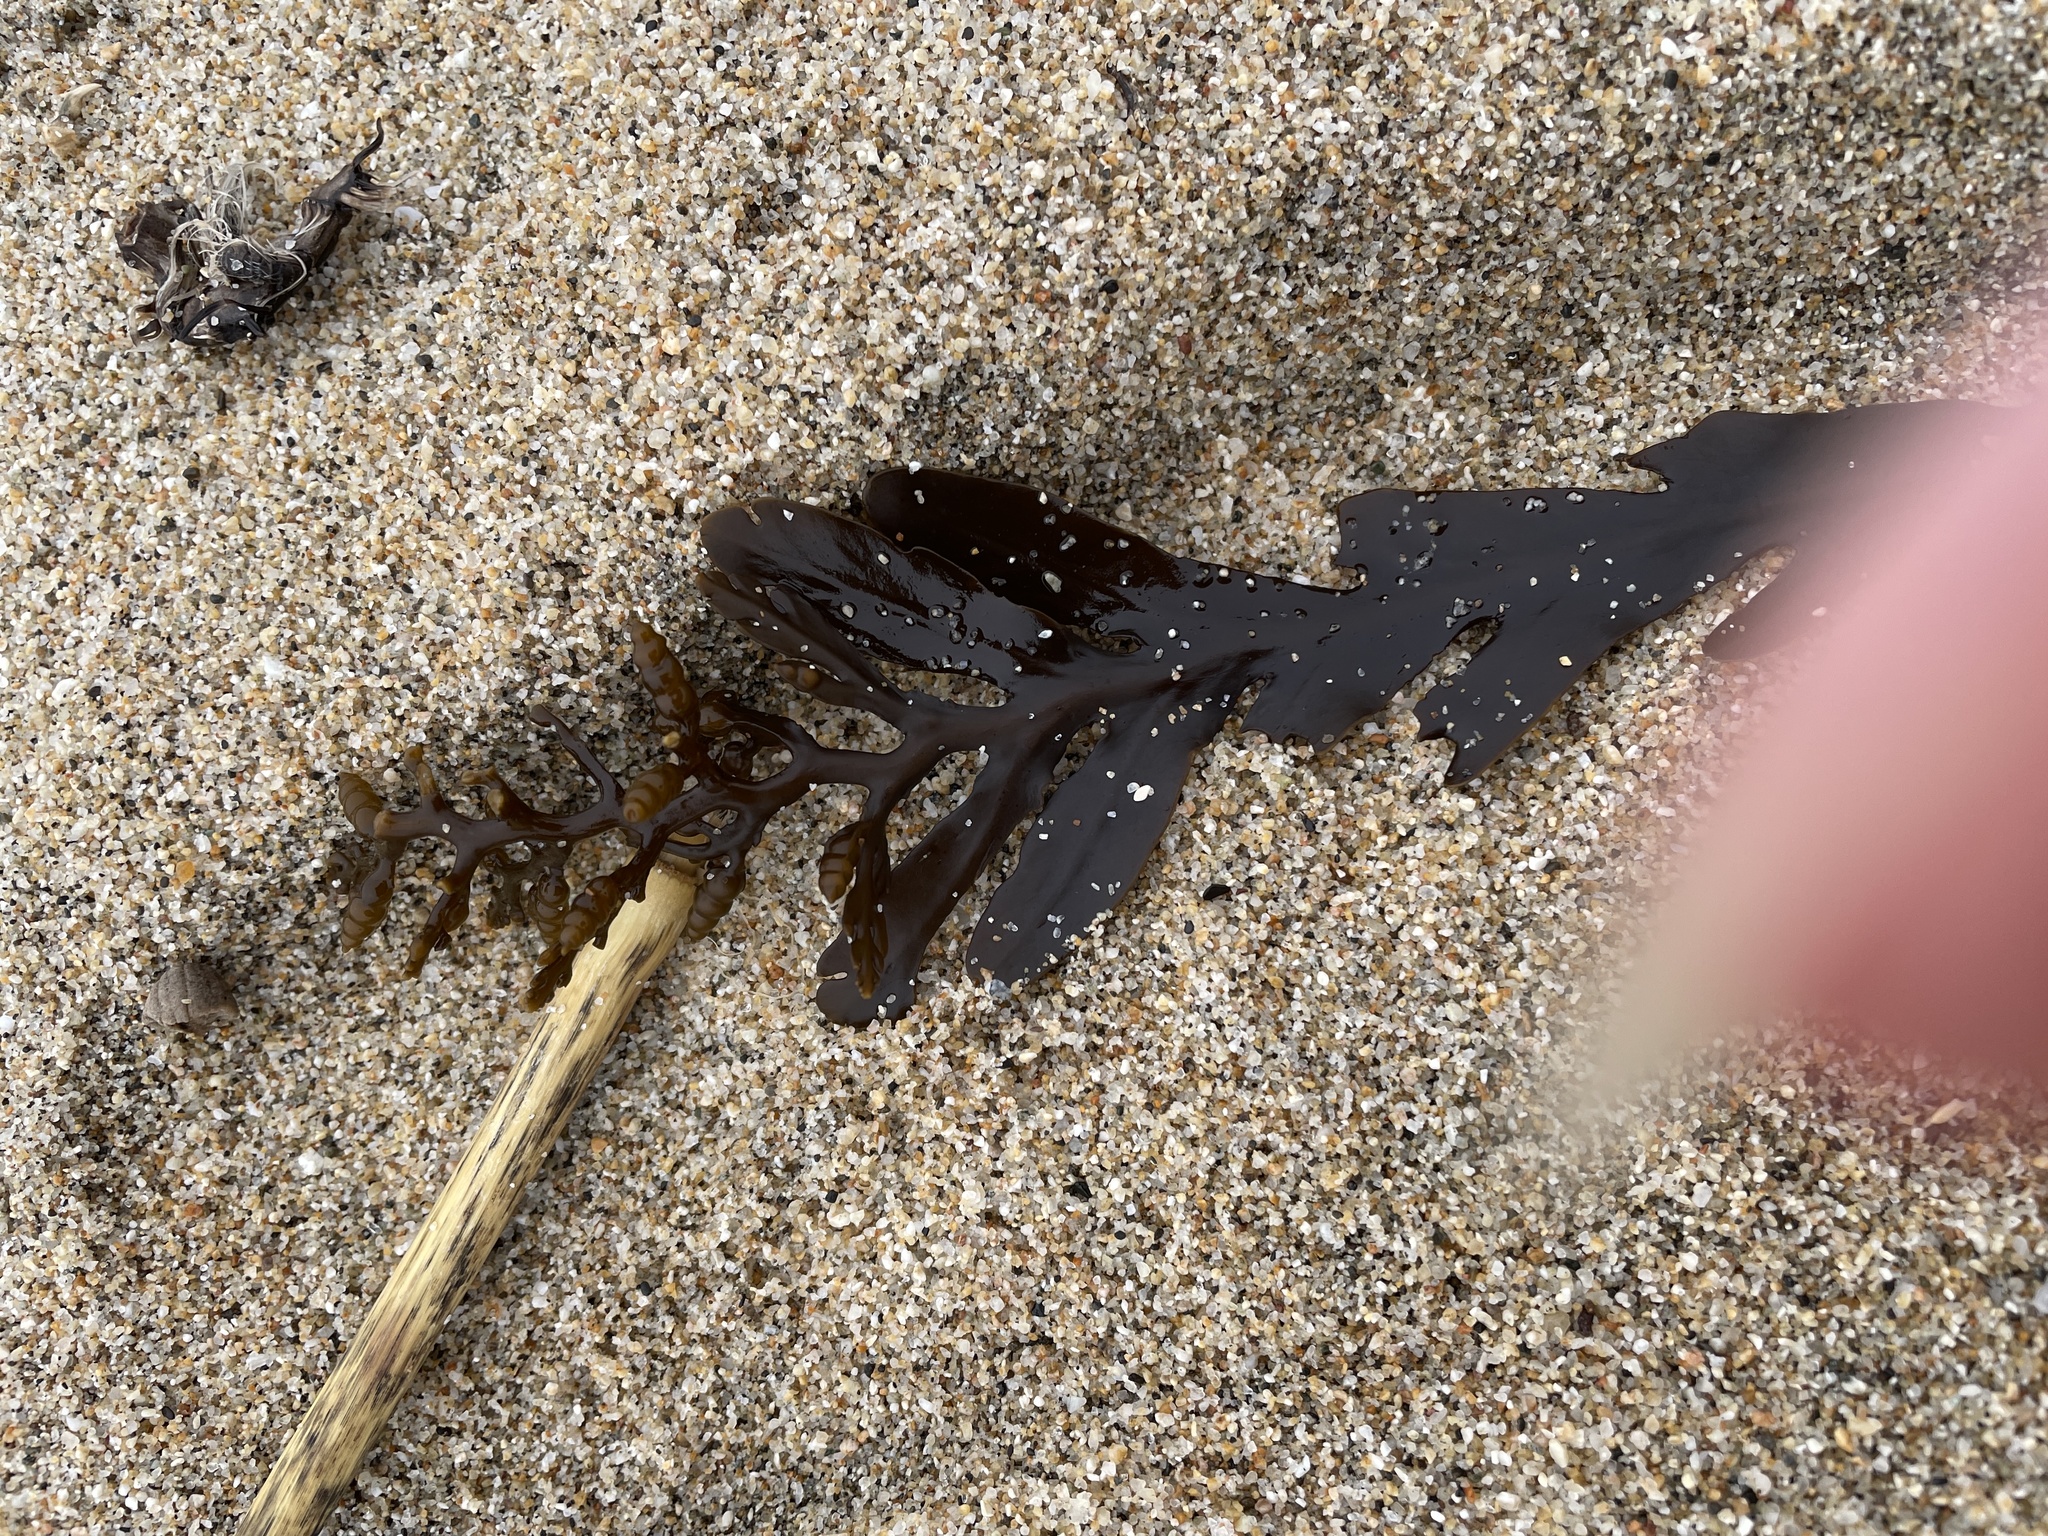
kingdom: Chromista
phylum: Ochrophyta
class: Phaeophyceae
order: Fucales
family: Sargassaceae
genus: Stephanocystis
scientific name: Stephanocystis
